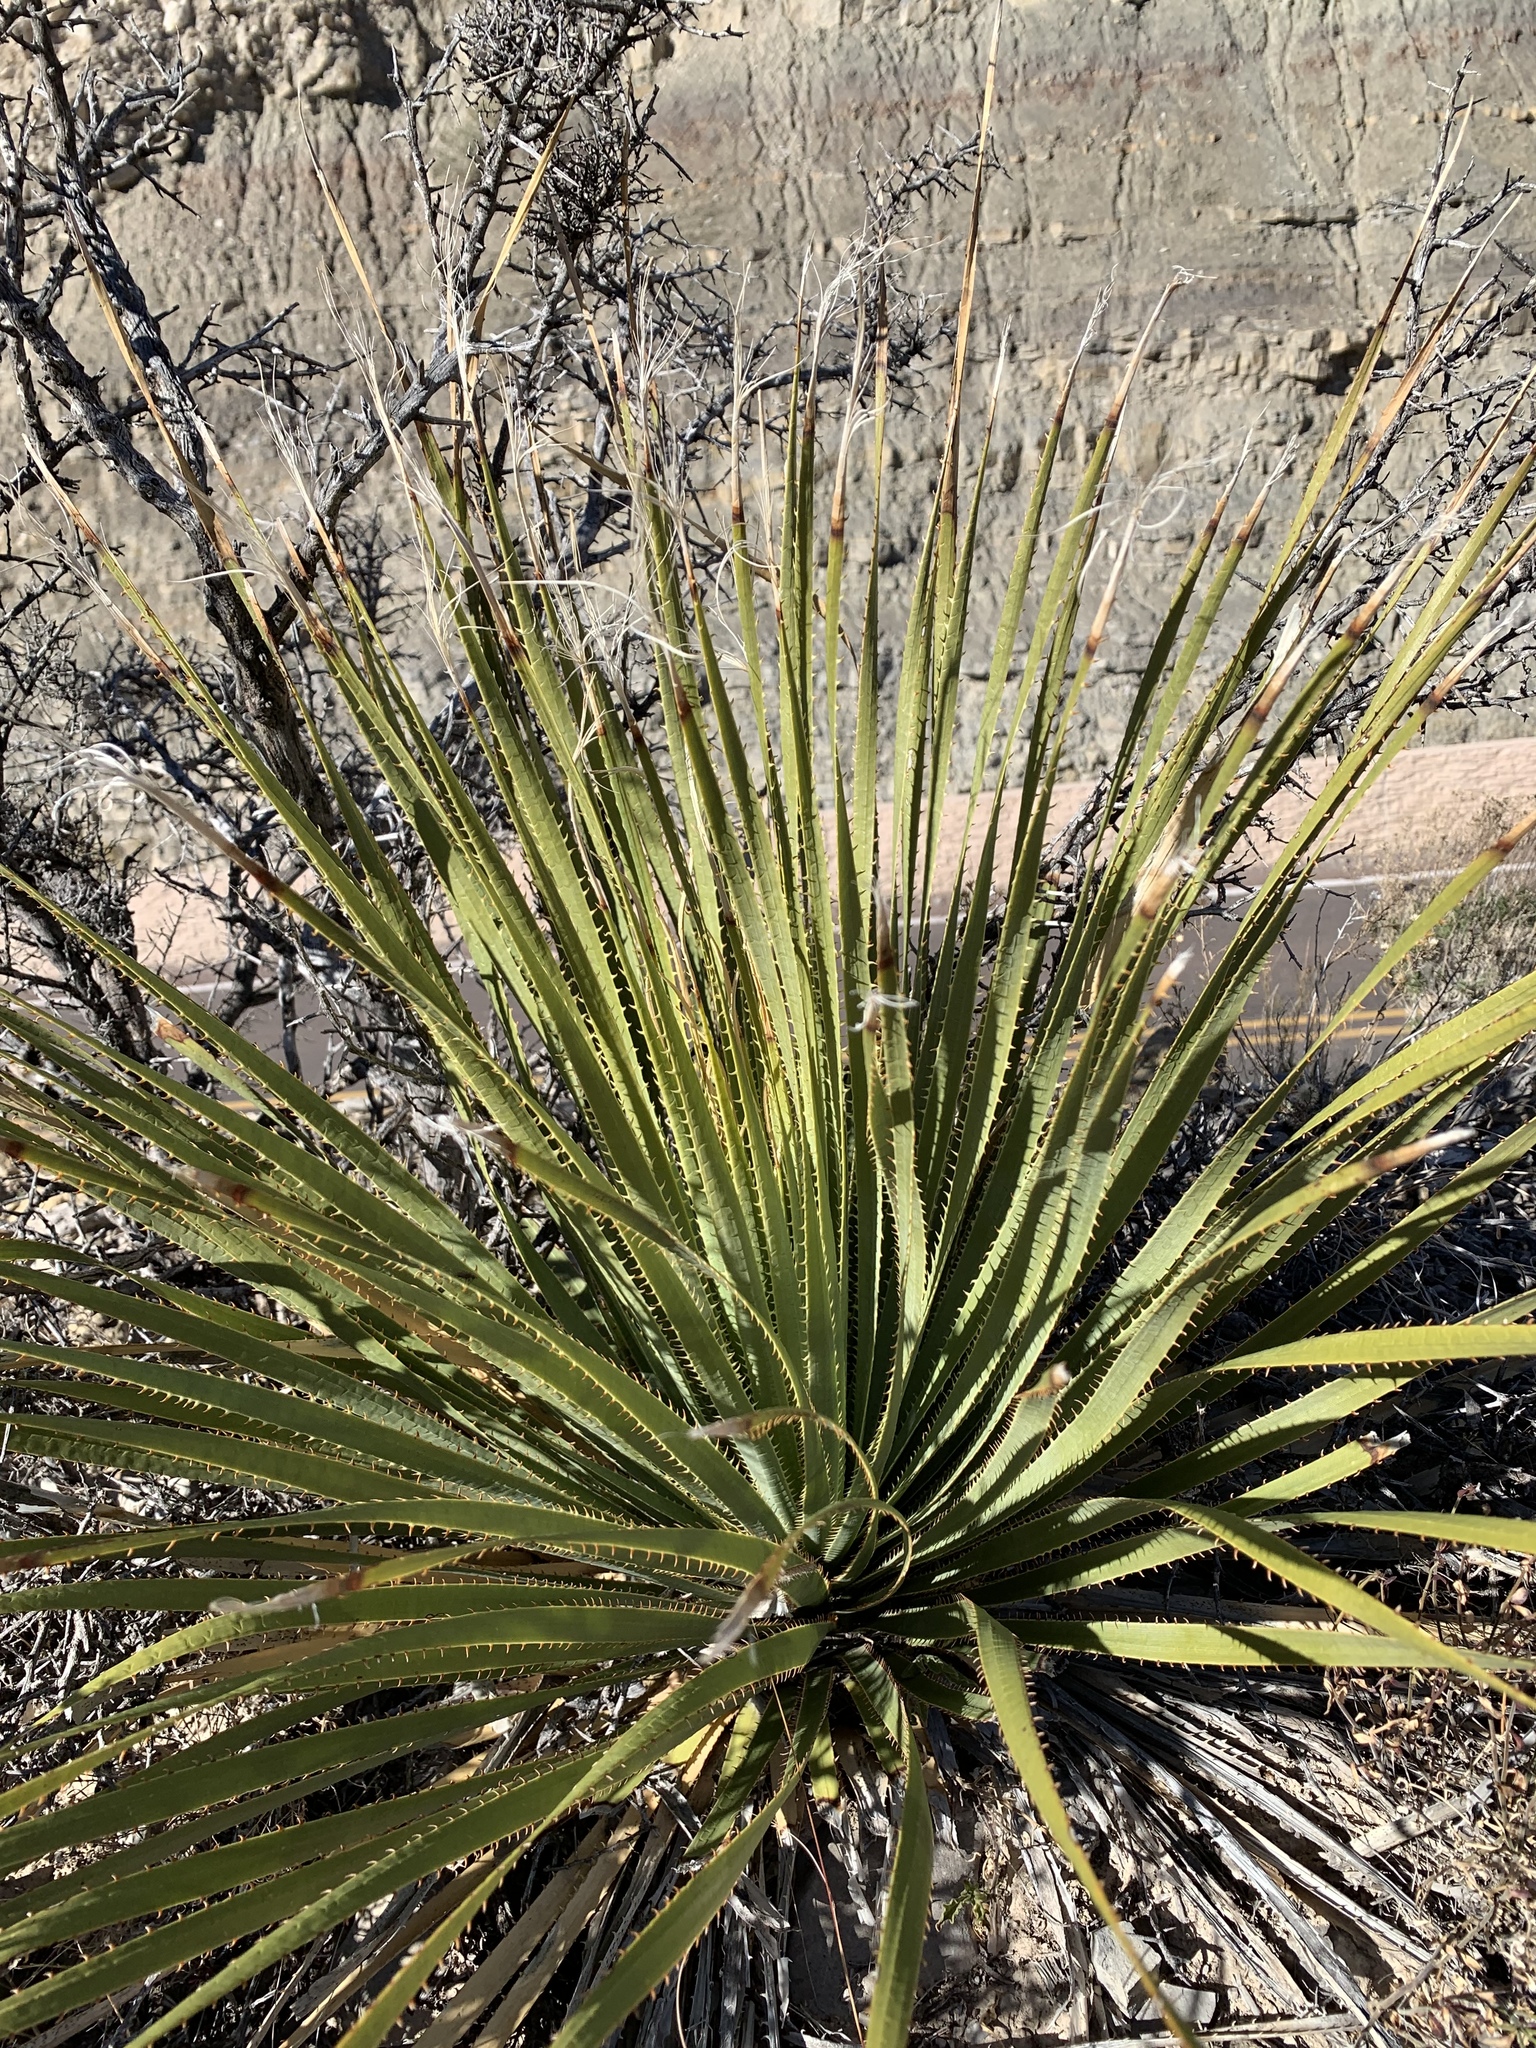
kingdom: Plantae
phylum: Tracheophyta
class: Liliopsida
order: Asparagales
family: Asparagaceae
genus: Dasylirion
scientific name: Dasylirion wheeleri
